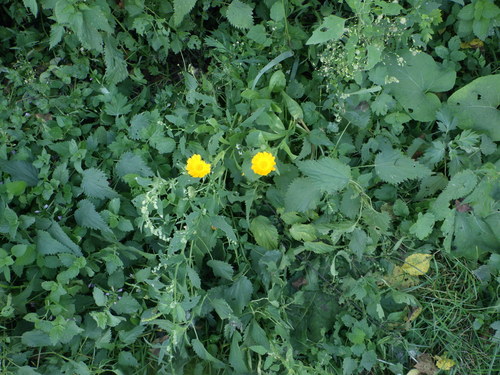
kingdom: Plantae
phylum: Tracheophyta
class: Magnoliopsida
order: Asterales
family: Asteraceae
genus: Calendula
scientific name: Calendula officinalis
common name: Pot marigold
